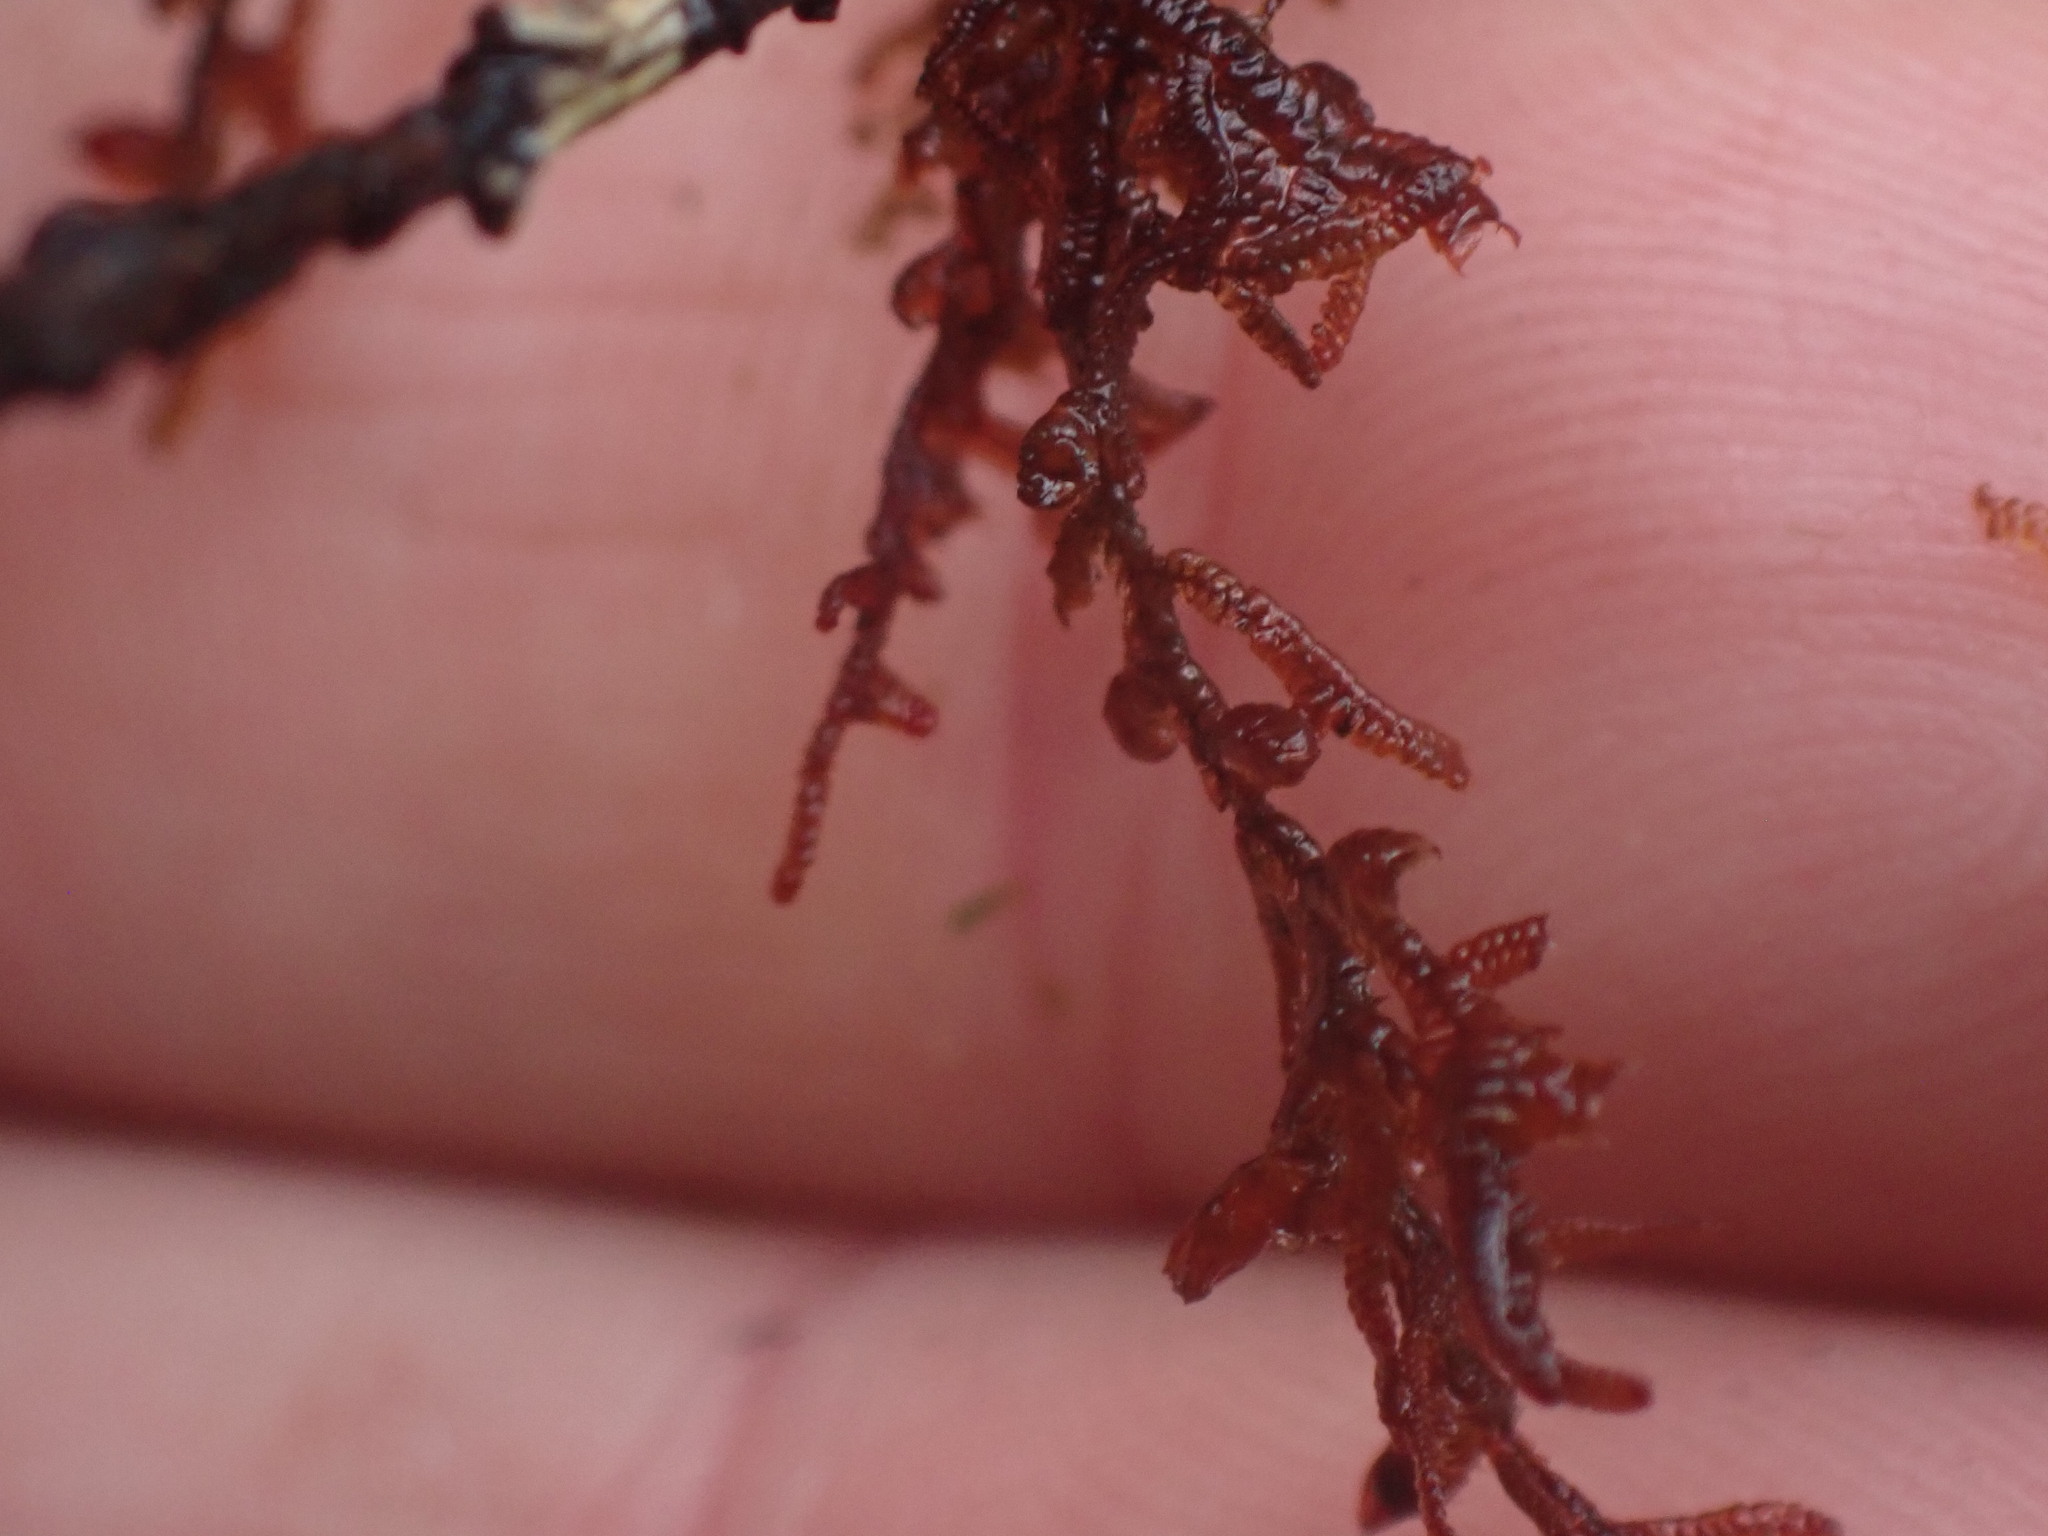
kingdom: Plantae
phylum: Marchantiophyta
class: Jungermanniopsida
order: Porellales
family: Frullaniaceae
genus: Frullania
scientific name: Frullania nisquallensis
